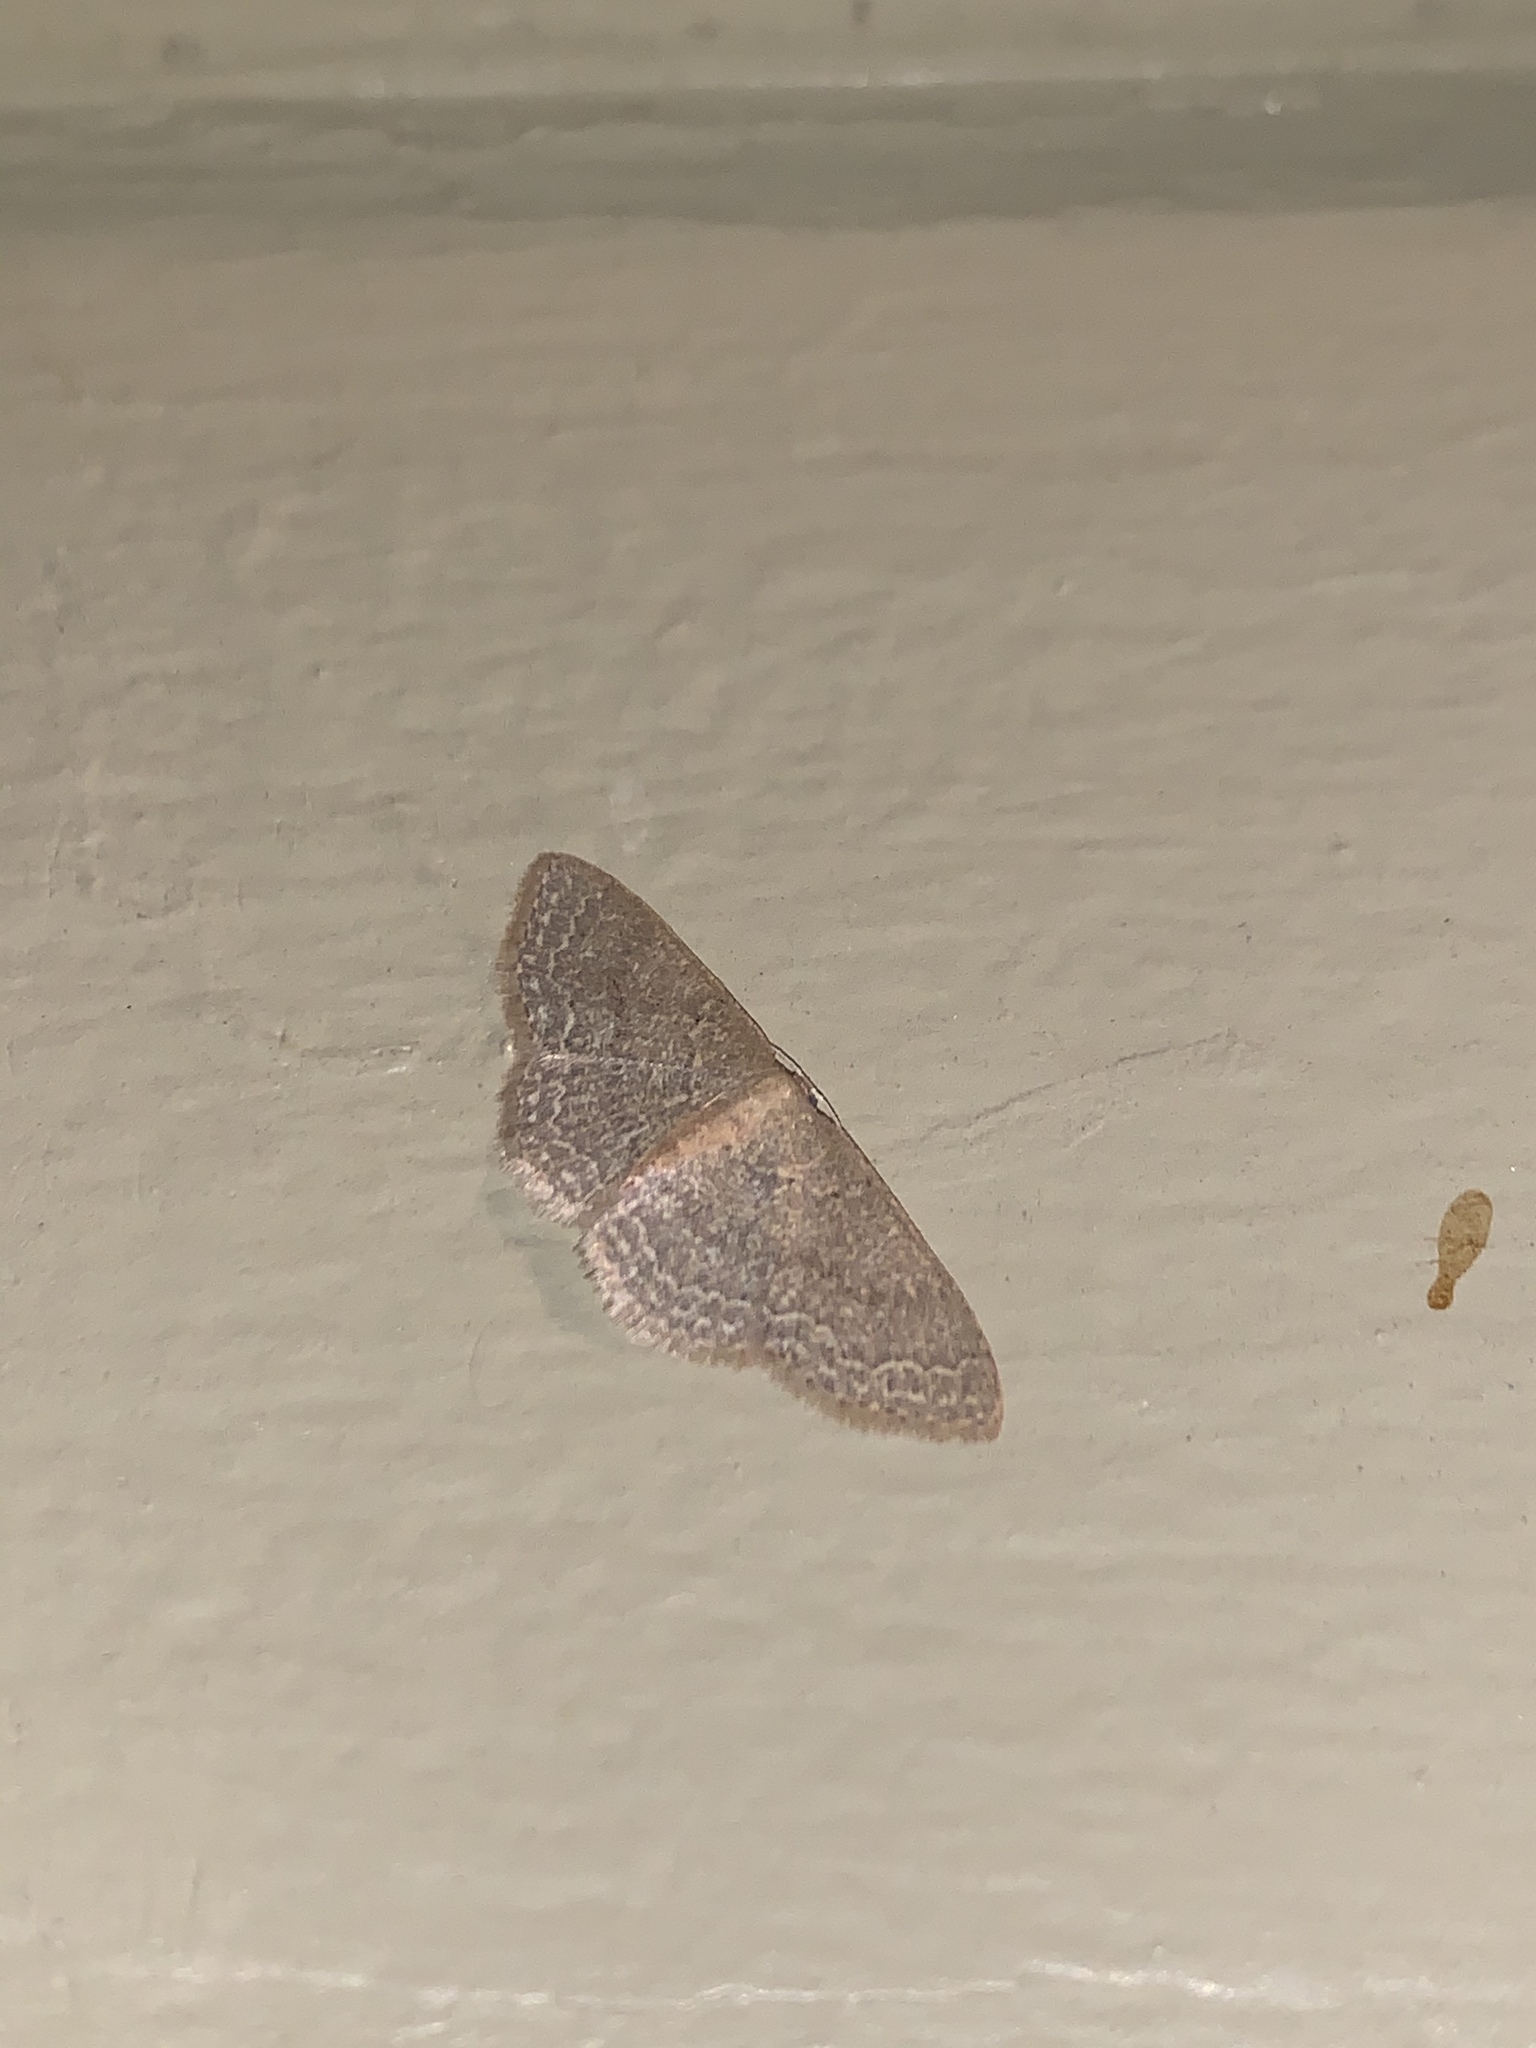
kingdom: Animalia
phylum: Arthropoda
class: Insecta
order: Lepidoptera
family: Geometridae
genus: Pleuroprucha
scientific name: Pleuroprucha insulsaria
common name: Common tan wave
